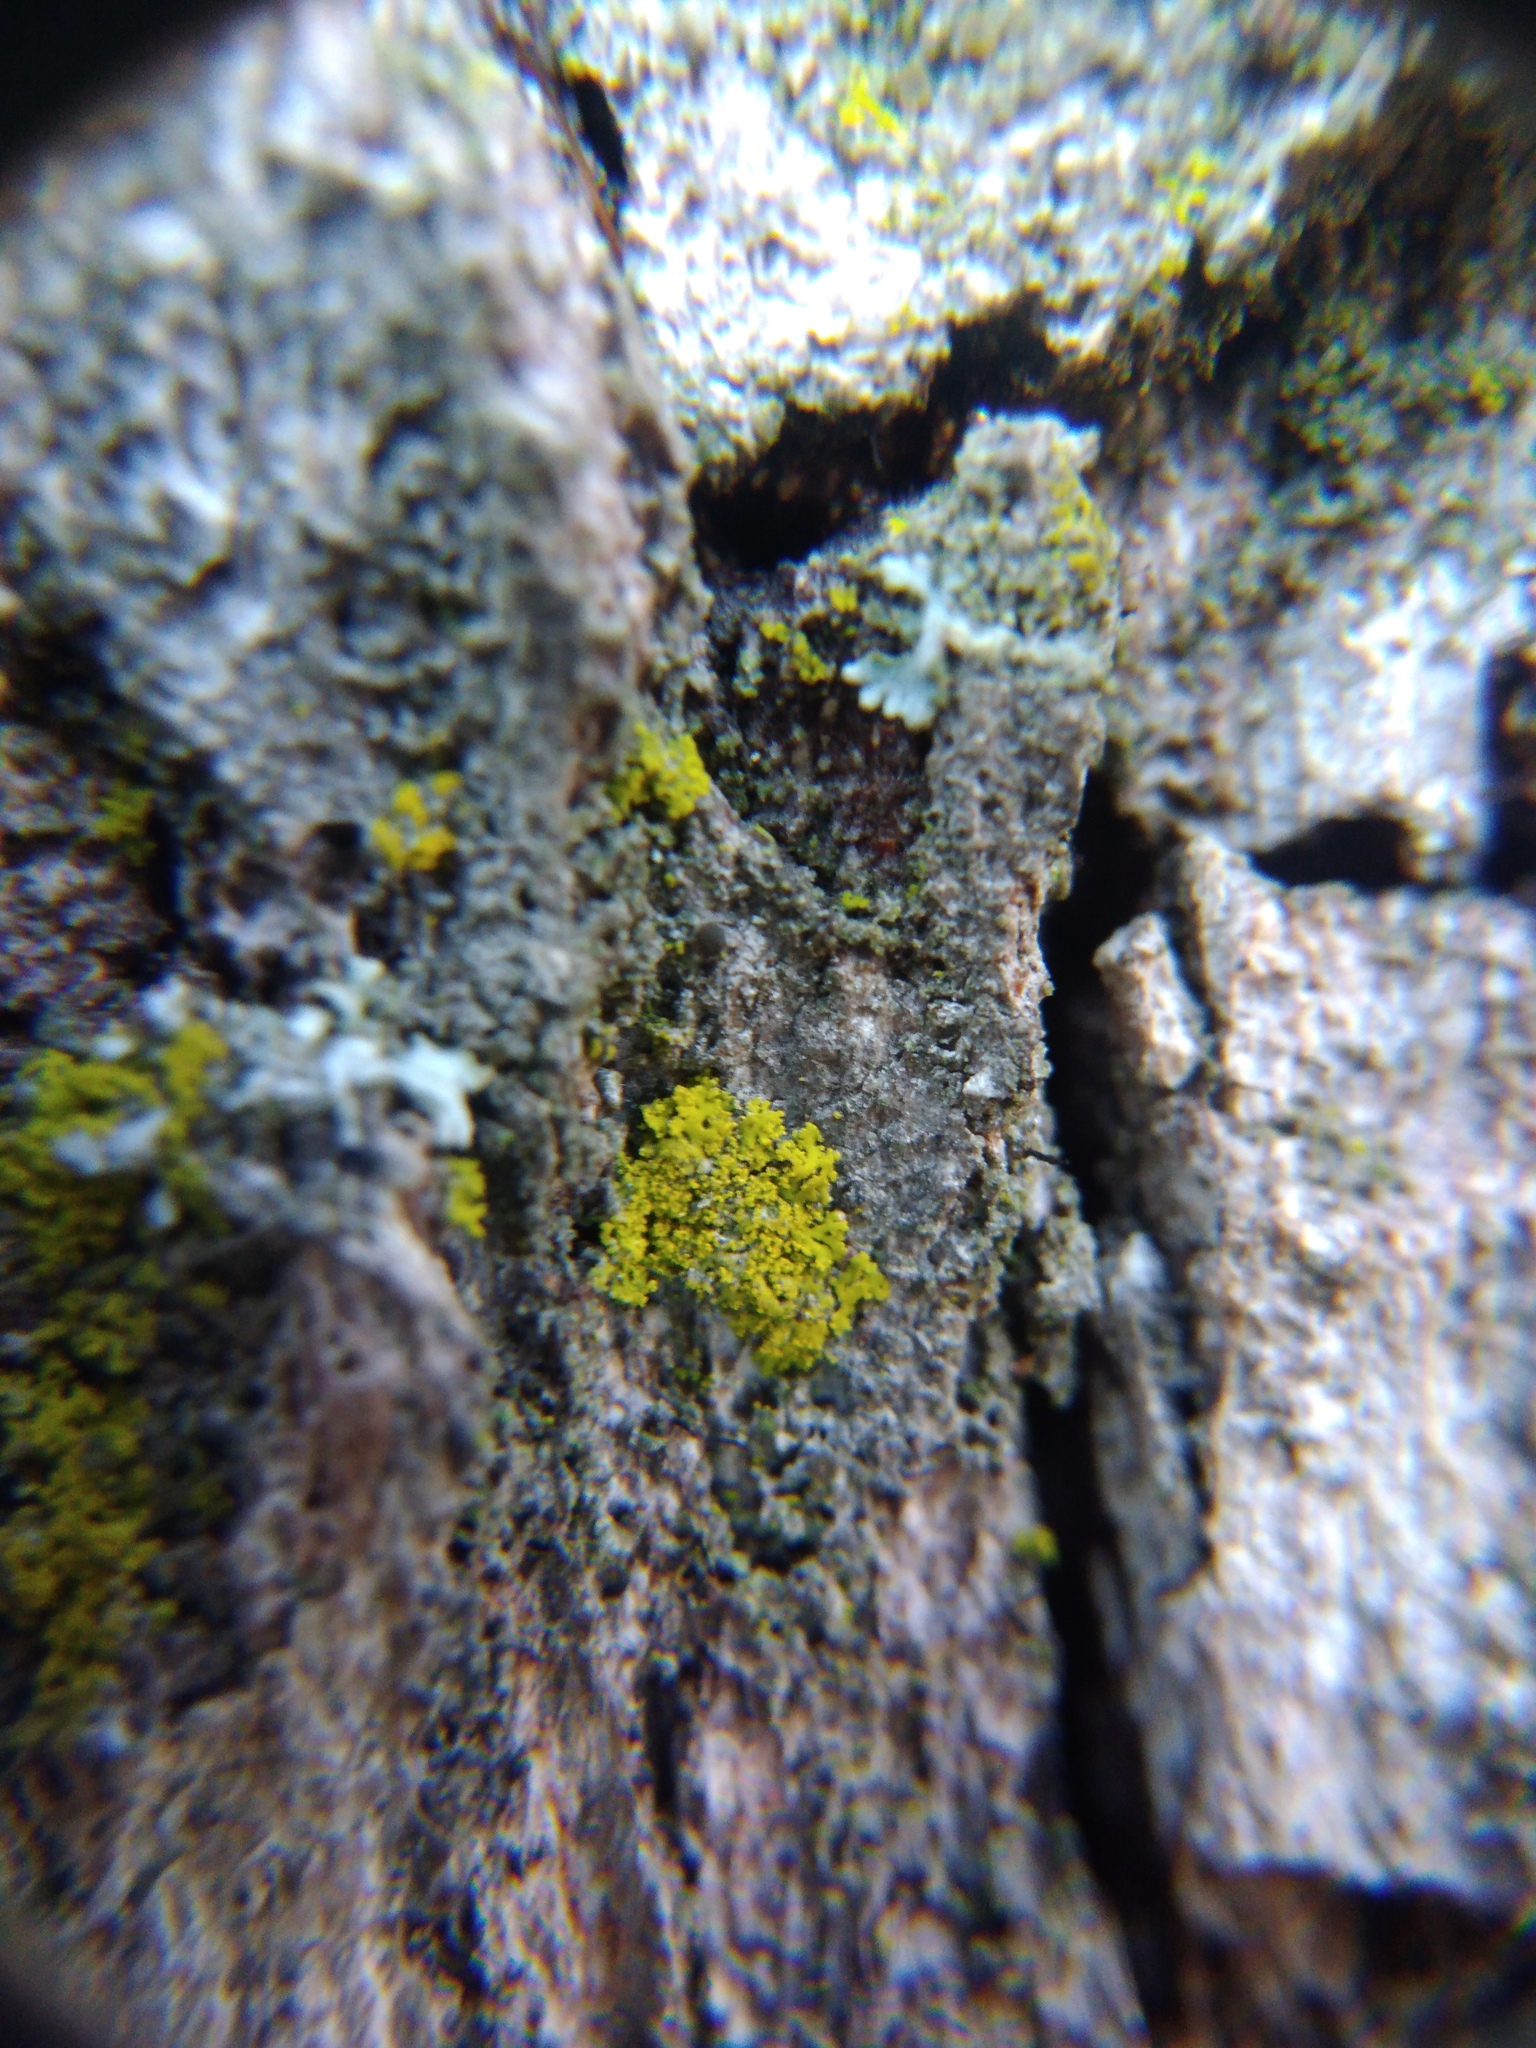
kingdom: Fungi
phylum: Ascomycota
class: Candelariomycetes
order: Candelariales
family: Candelariaceae
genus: Candelaria
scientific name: Candelaria concolor
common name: Candleflame lichen
